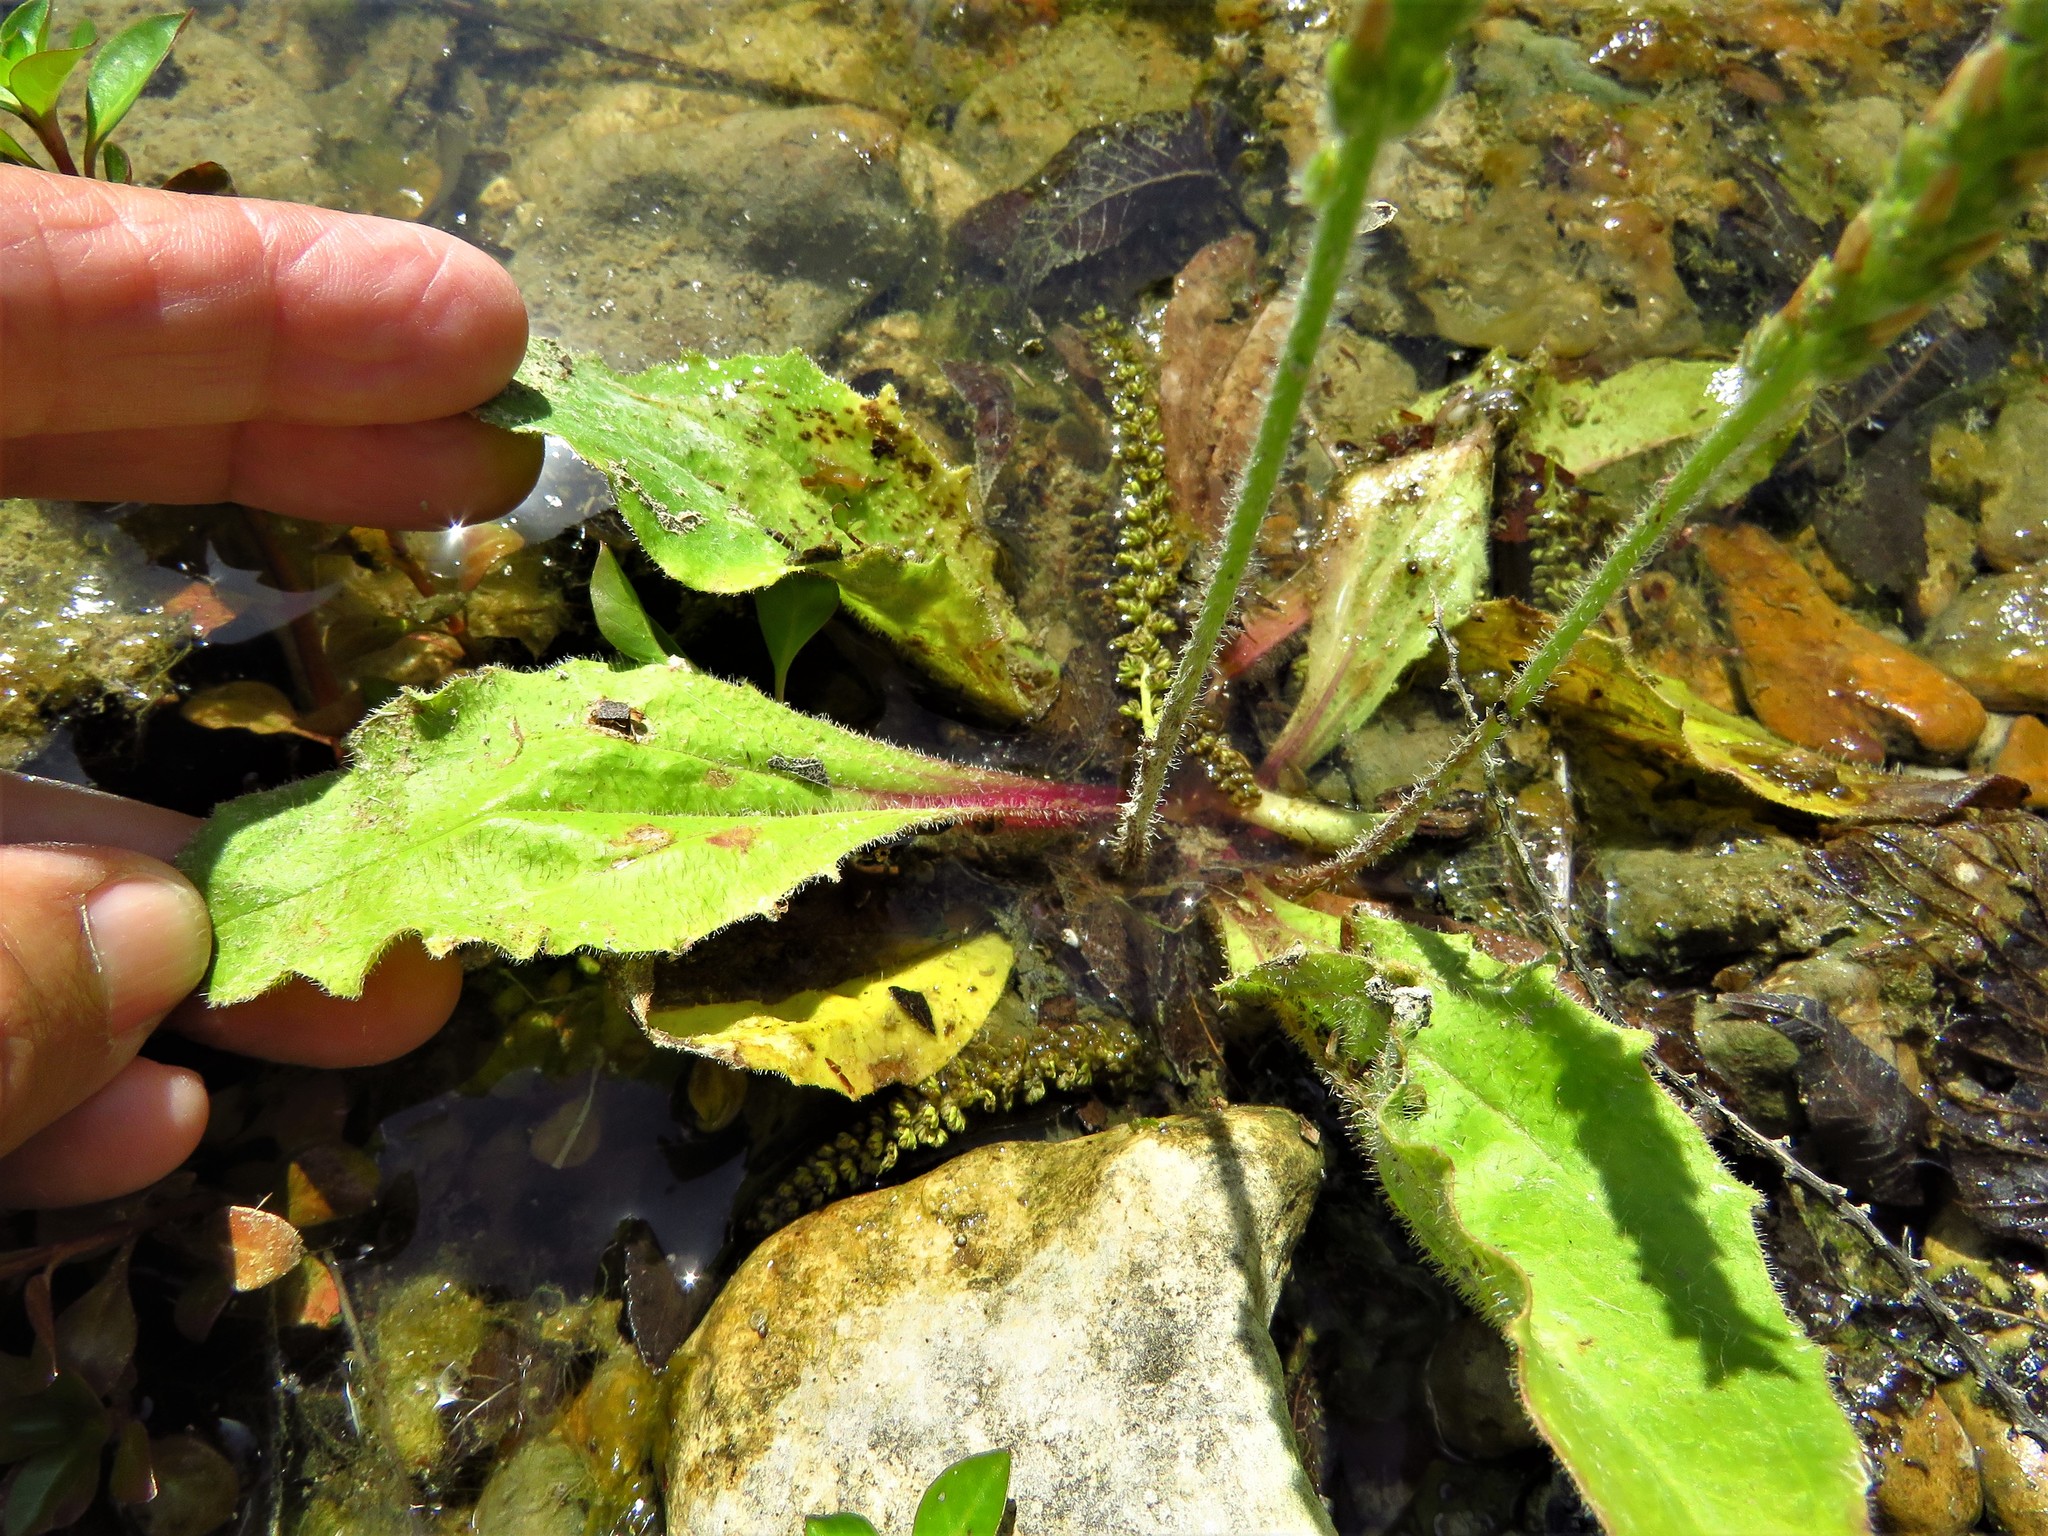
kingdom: Plantae
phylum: Tracheophyta
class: Magnoliopsida
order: Lamiales
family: Plantaginaceae
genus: Plantago
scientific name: Plantago rhodosperma
